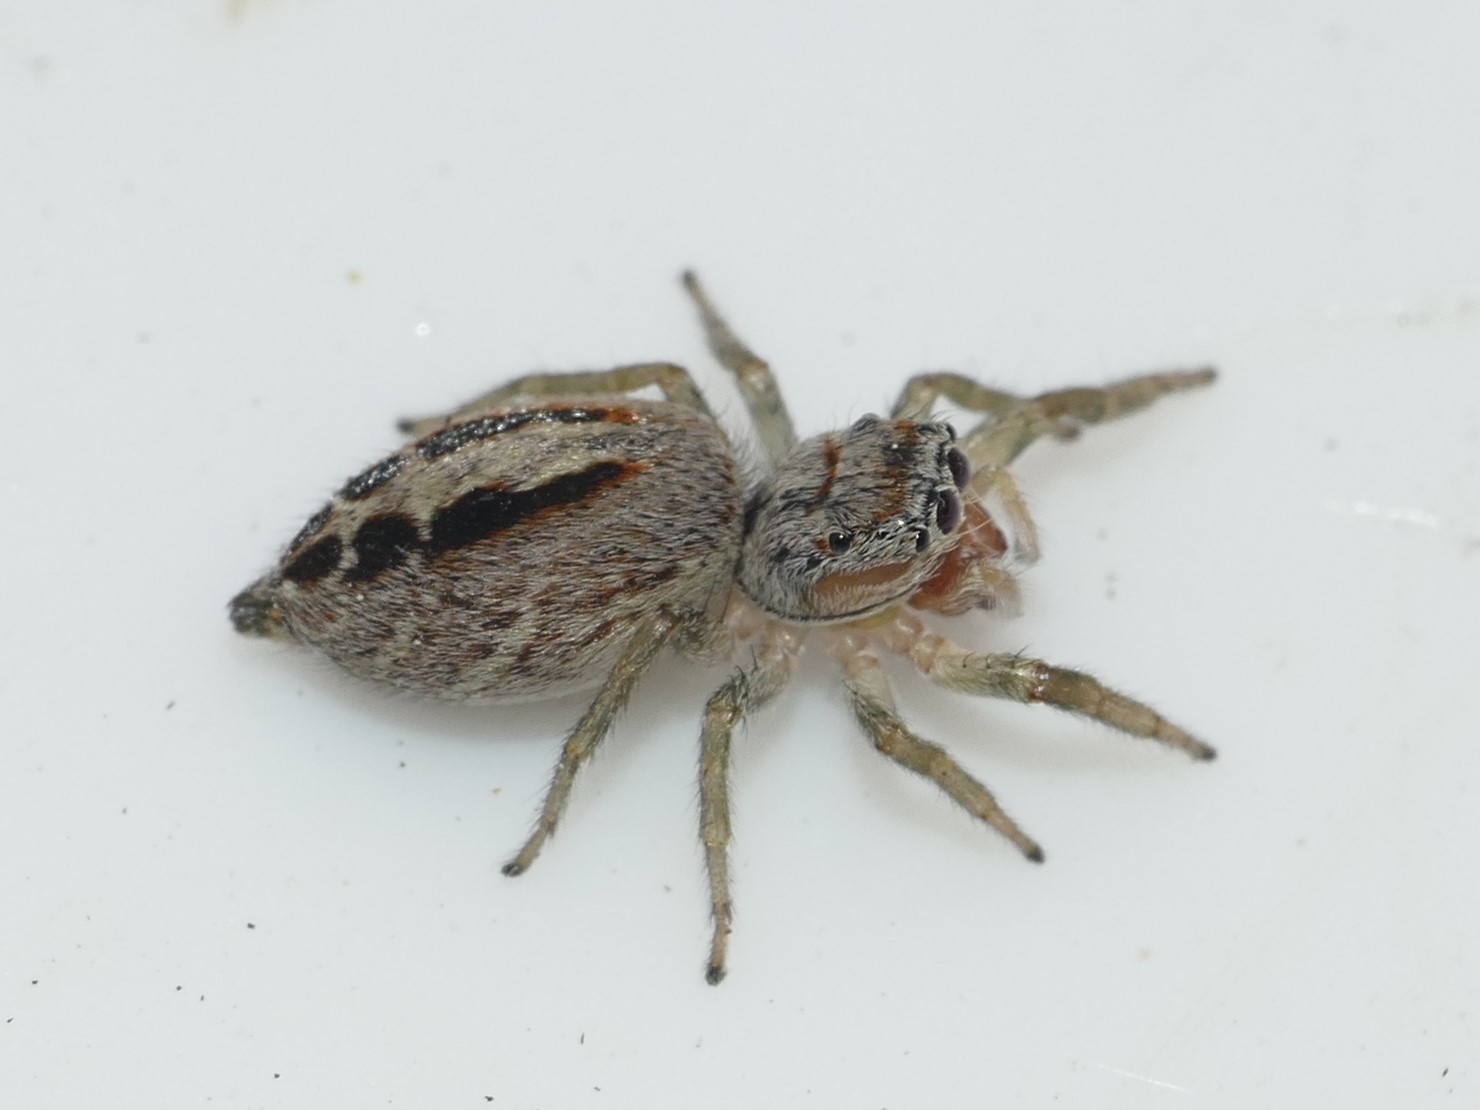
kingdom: Animalia
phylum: Arthropoda
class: Arachnida
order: Araneae
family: Salticidae
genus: Icius
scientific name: Icius hamatus
